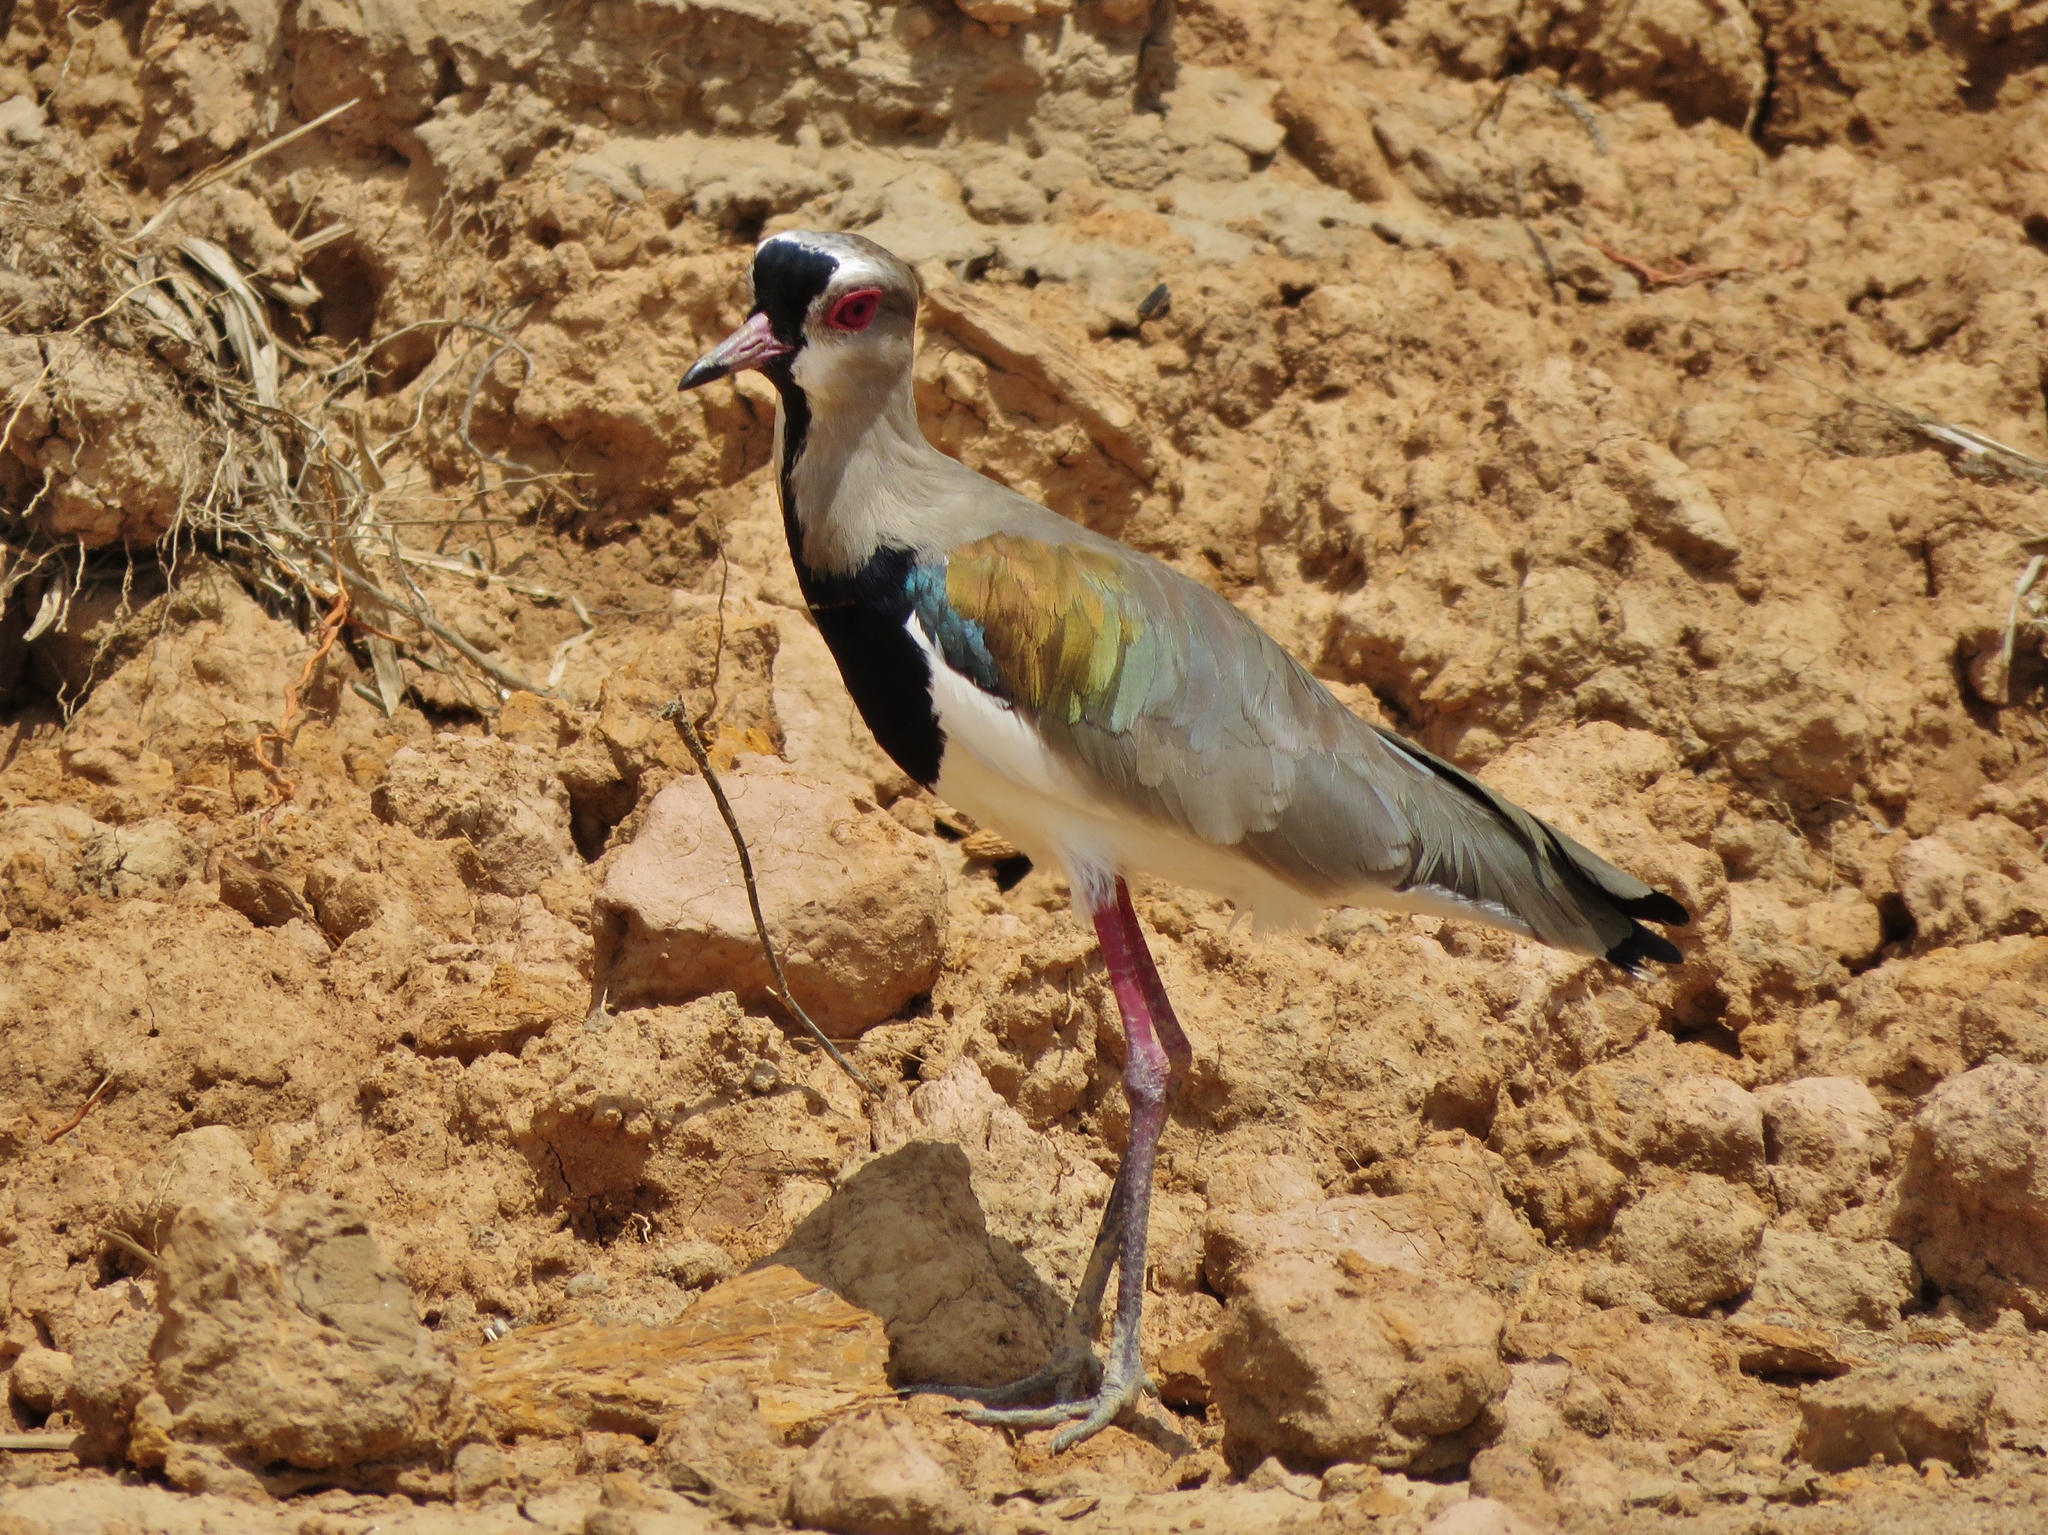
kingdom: Animalia
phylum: Chordata
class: Aves
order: Charadriiformes
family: Charadriidae
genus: Vanellus
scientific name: Vanellus chilensis
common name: Southern lapwing
